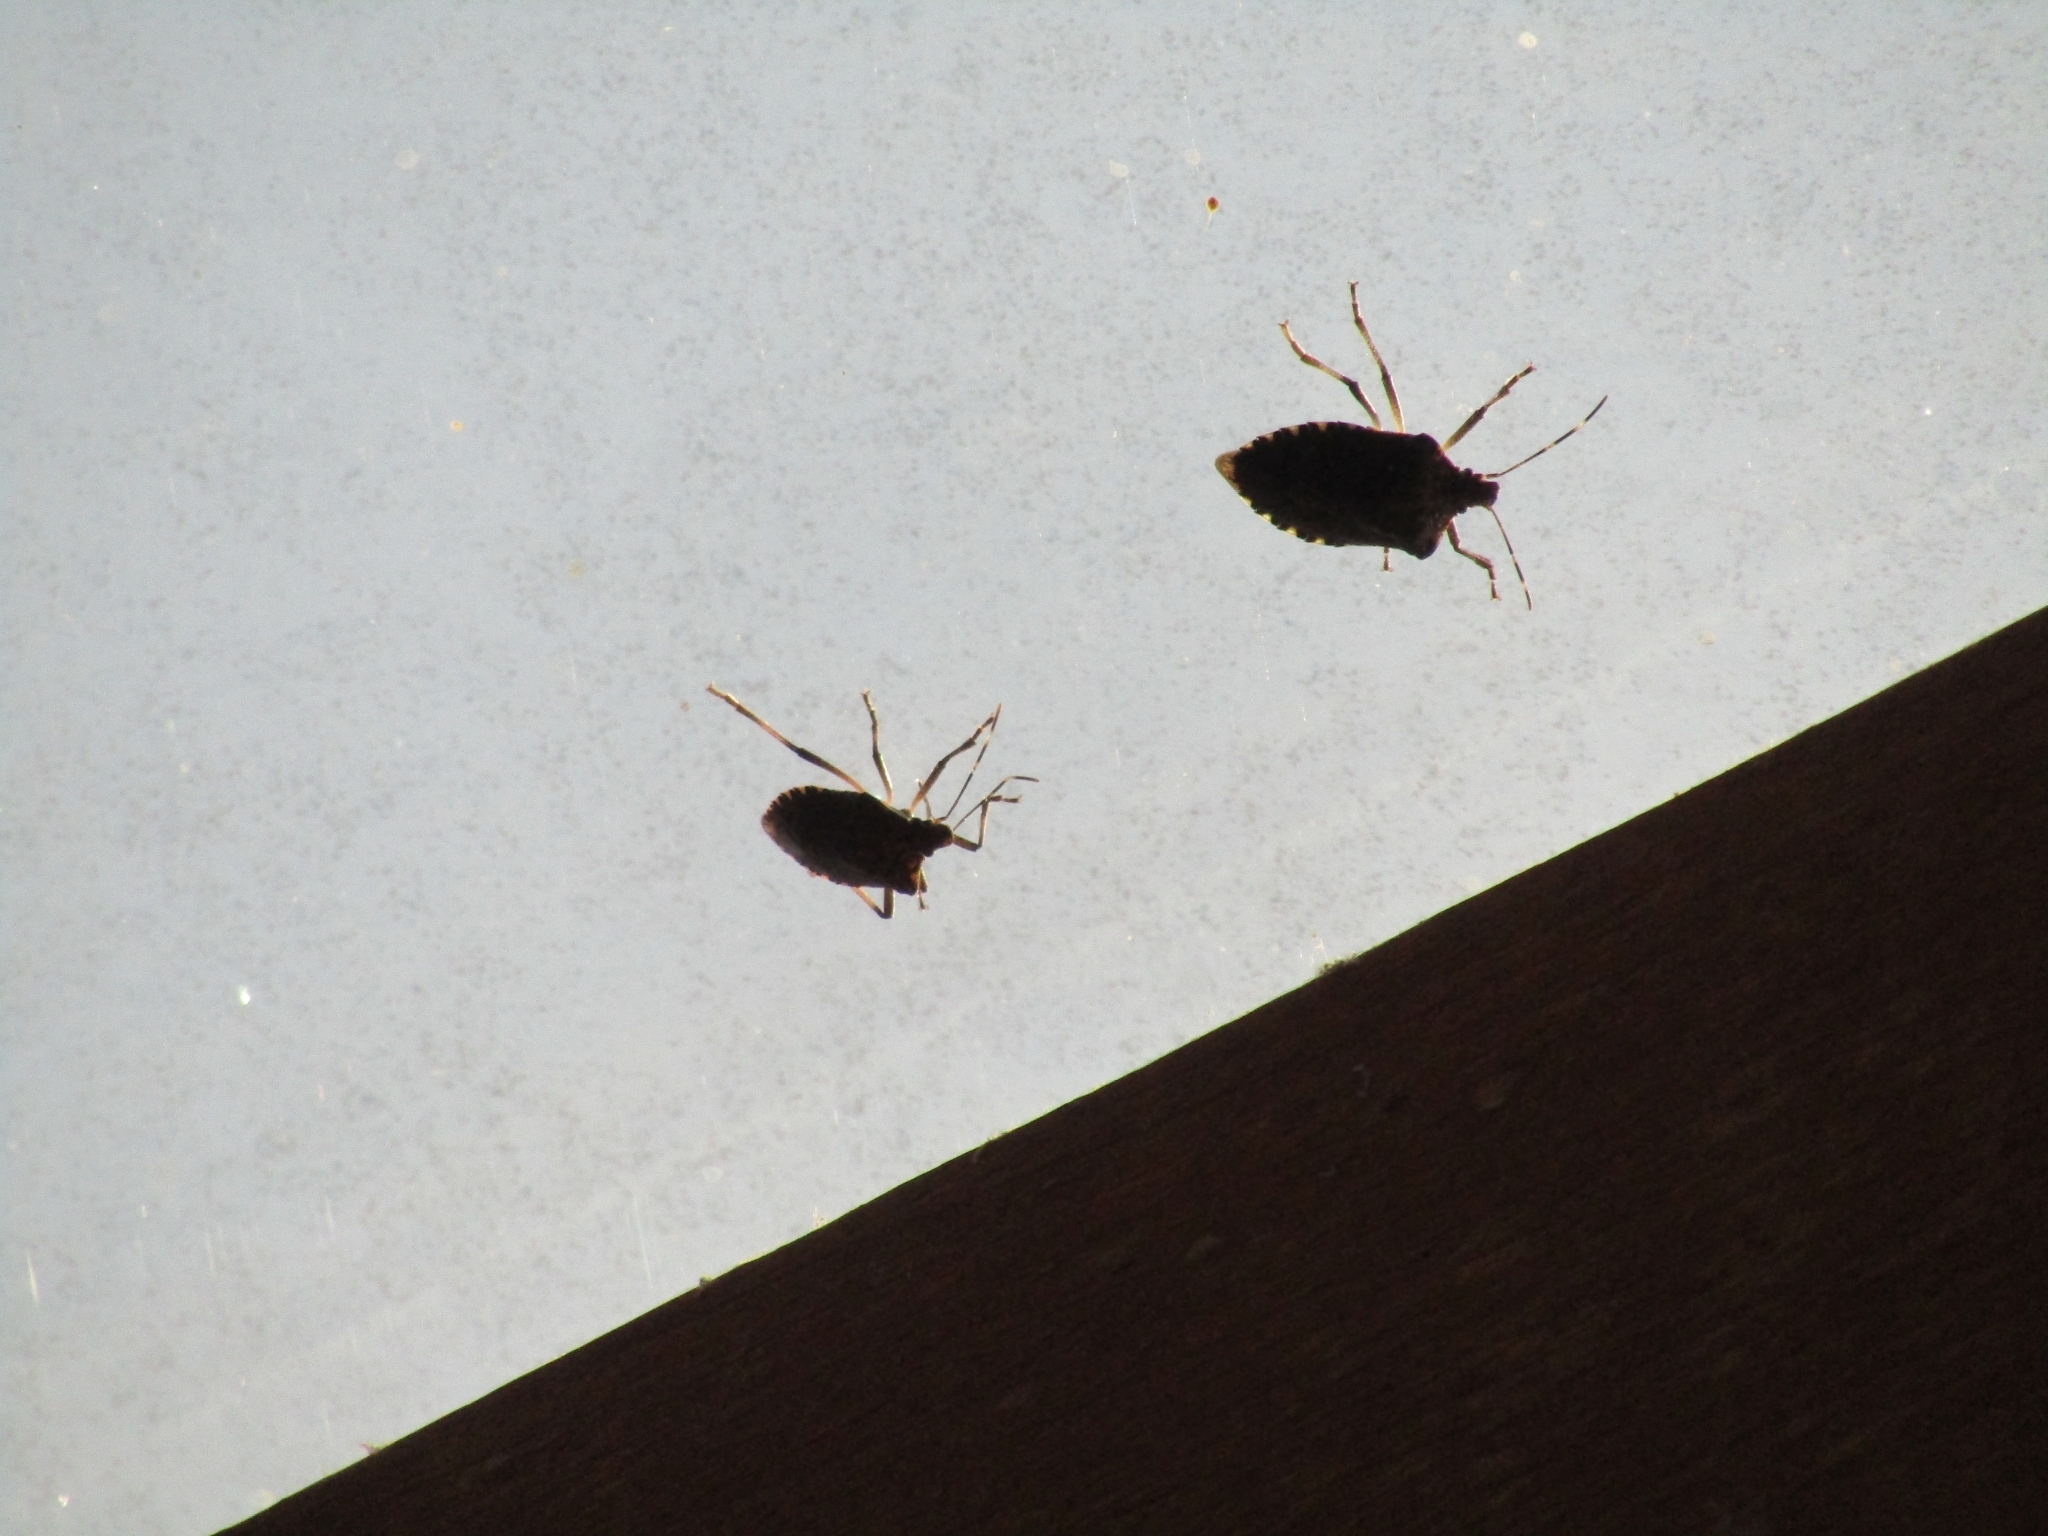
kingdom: Animalia
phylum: Arthropoda
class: Insecta
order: Hemiptera
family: Pentatomidae
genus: Halyomorpha
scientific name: Halyomorpha halys
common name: Brown marmorated stink bug
